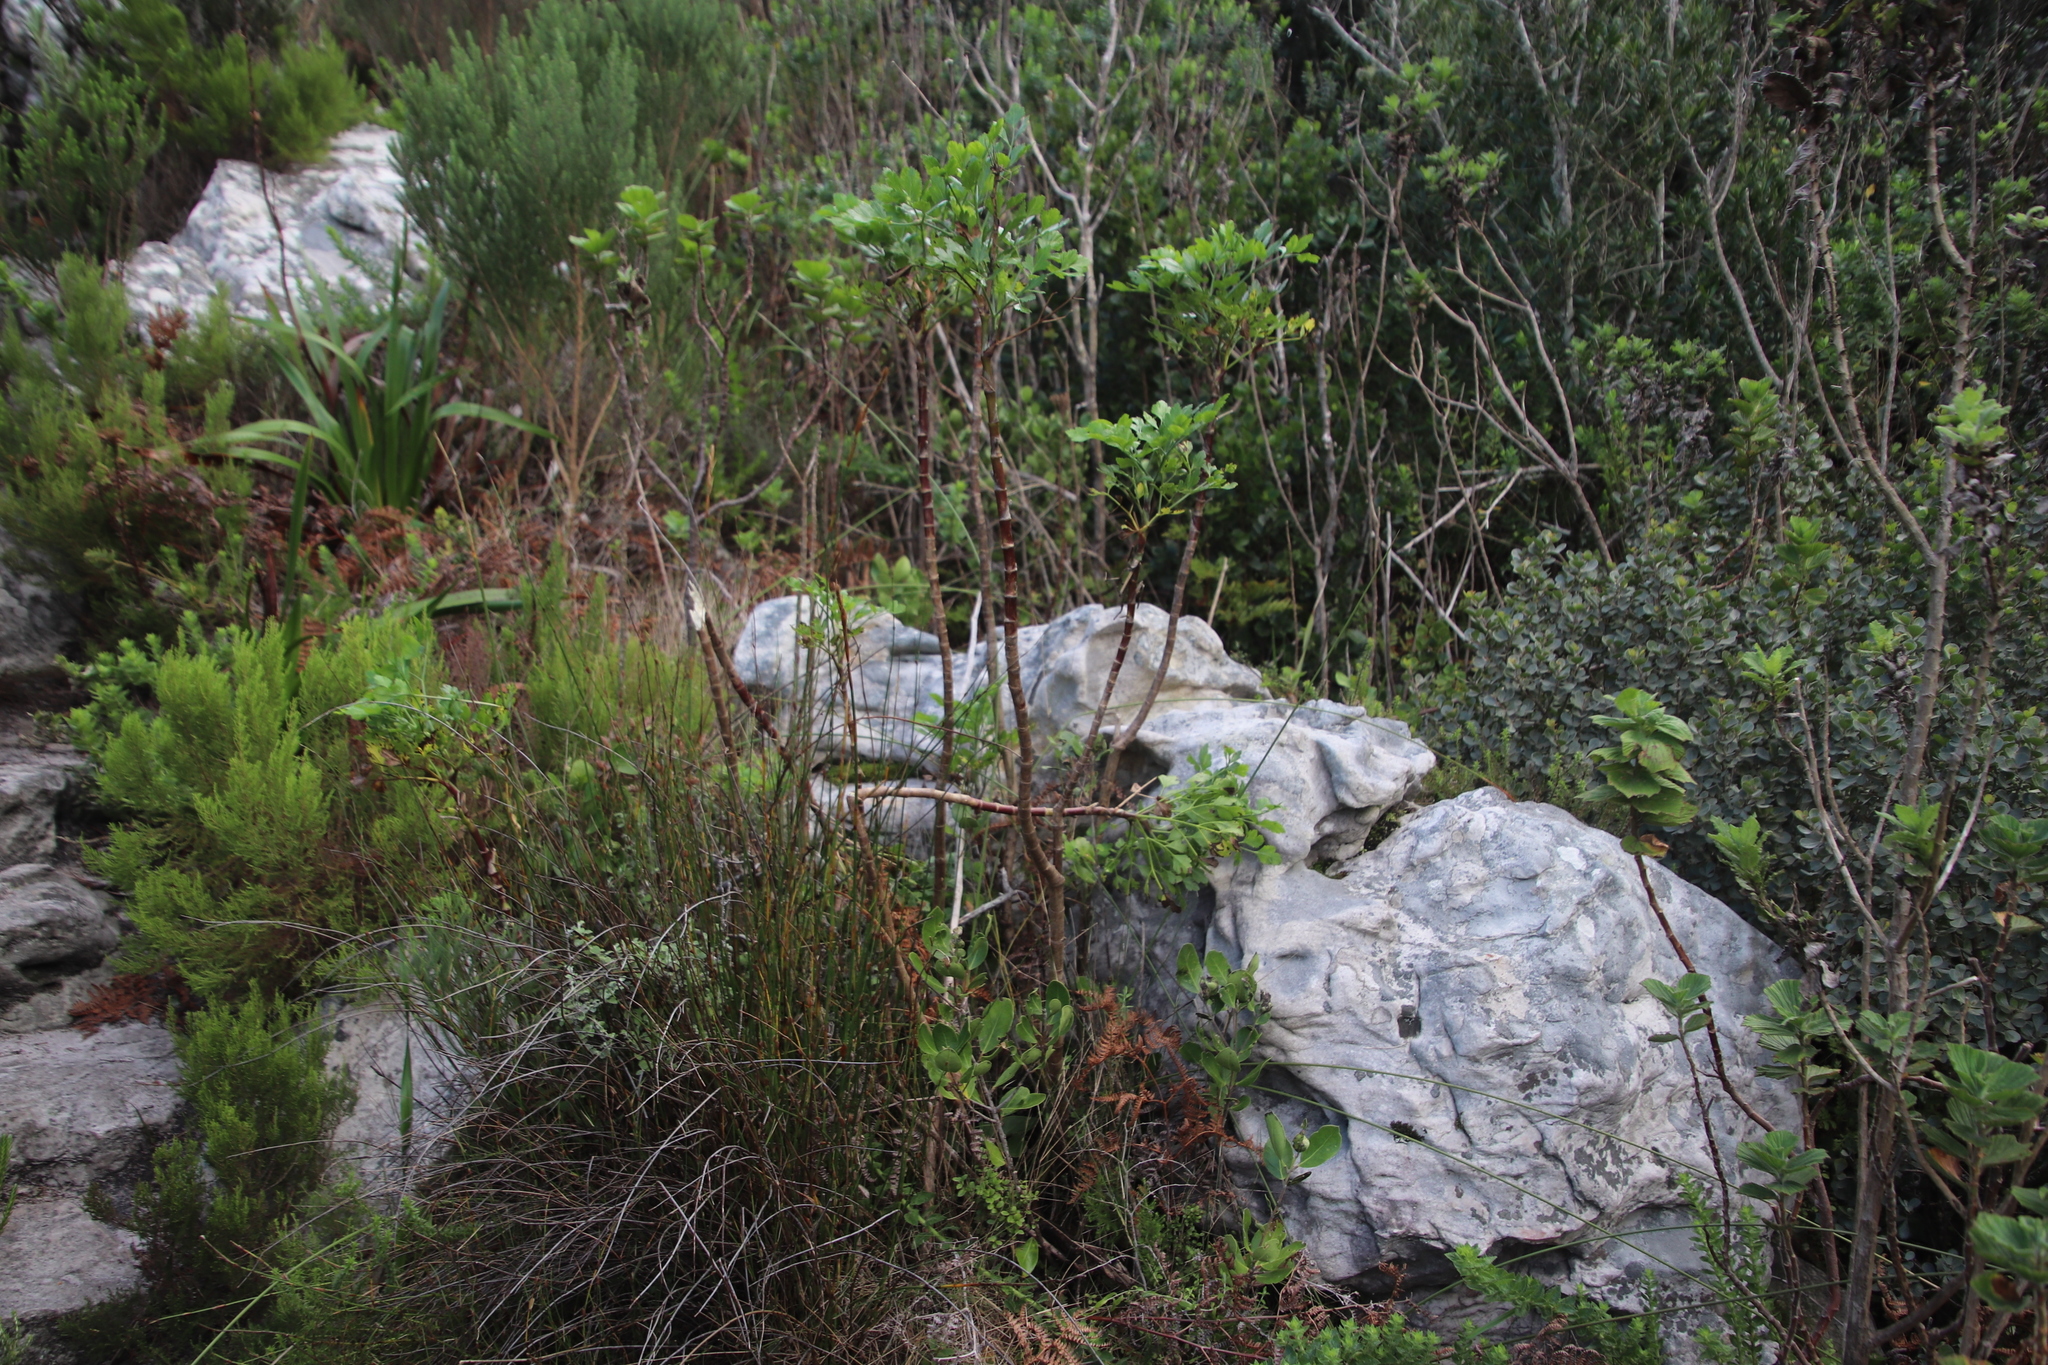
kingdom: Plantae
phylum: Tracheophyta
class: Magnoliopsida
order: Apiales
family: Apiaceae
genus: Notobubon
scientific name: Notobubon galbanum
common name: Blisterbush
